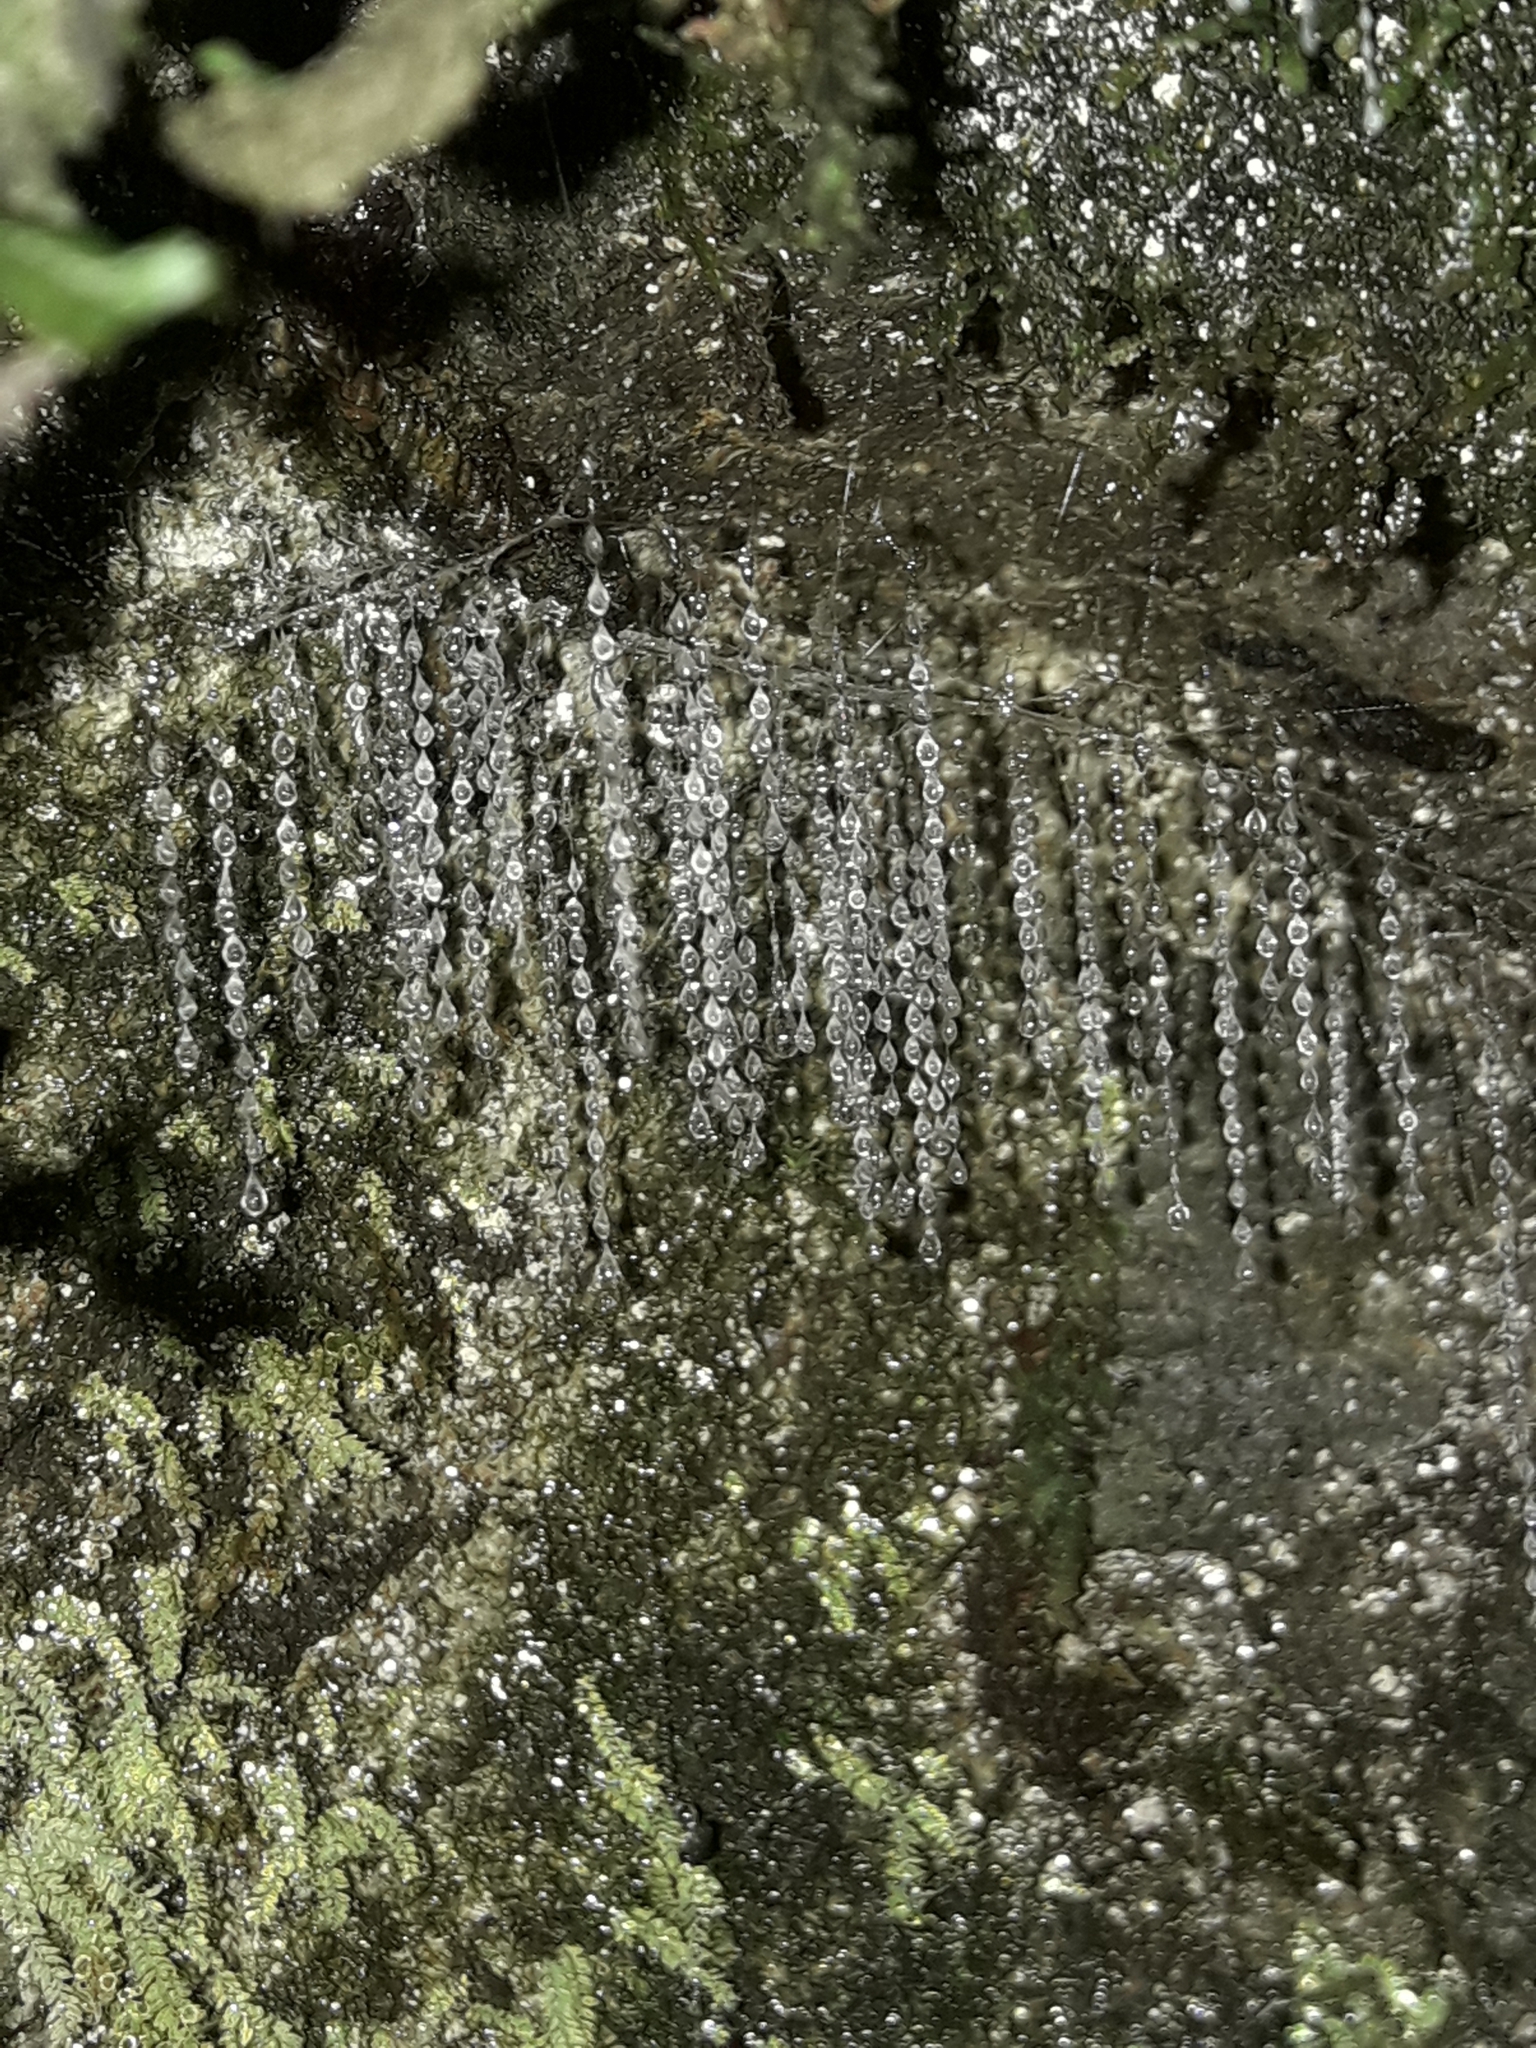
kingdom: Animalia
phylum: Arthropoda
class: Insecta
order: Diptera
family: Keroplatidae
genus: Arachnocampa
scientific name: Arachnocampa luminosa
